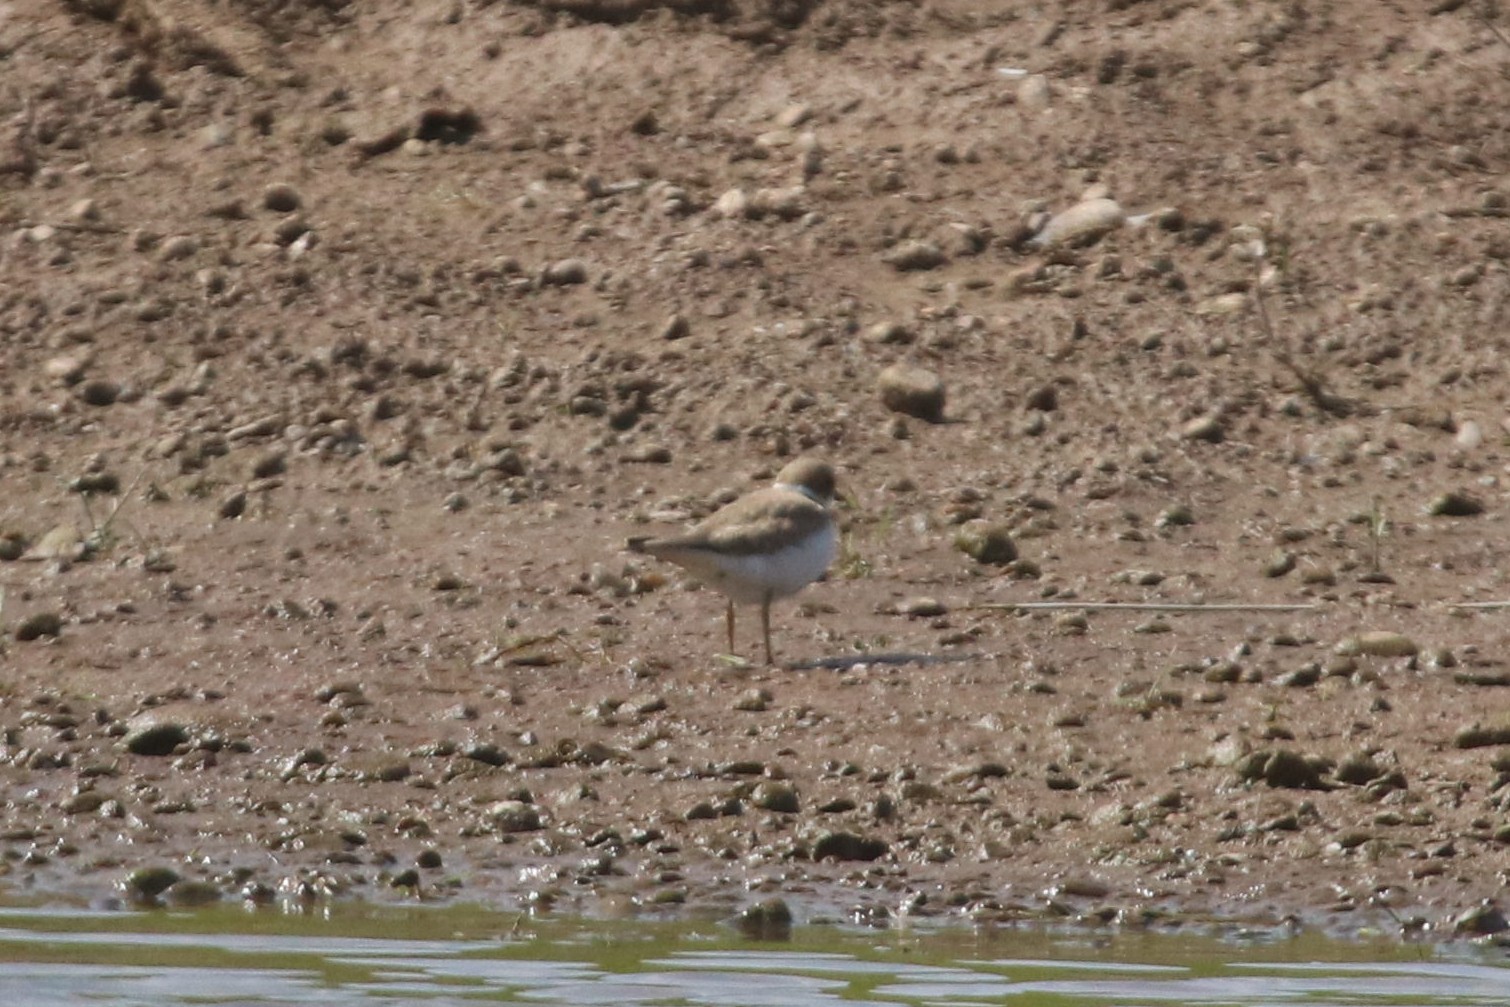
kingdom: Animalia
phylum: Chordata
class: Aves
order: Charadriiformes
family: Charadriidae
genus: Charadrius
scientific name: Charadrius dubius
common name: Little ringed plover
